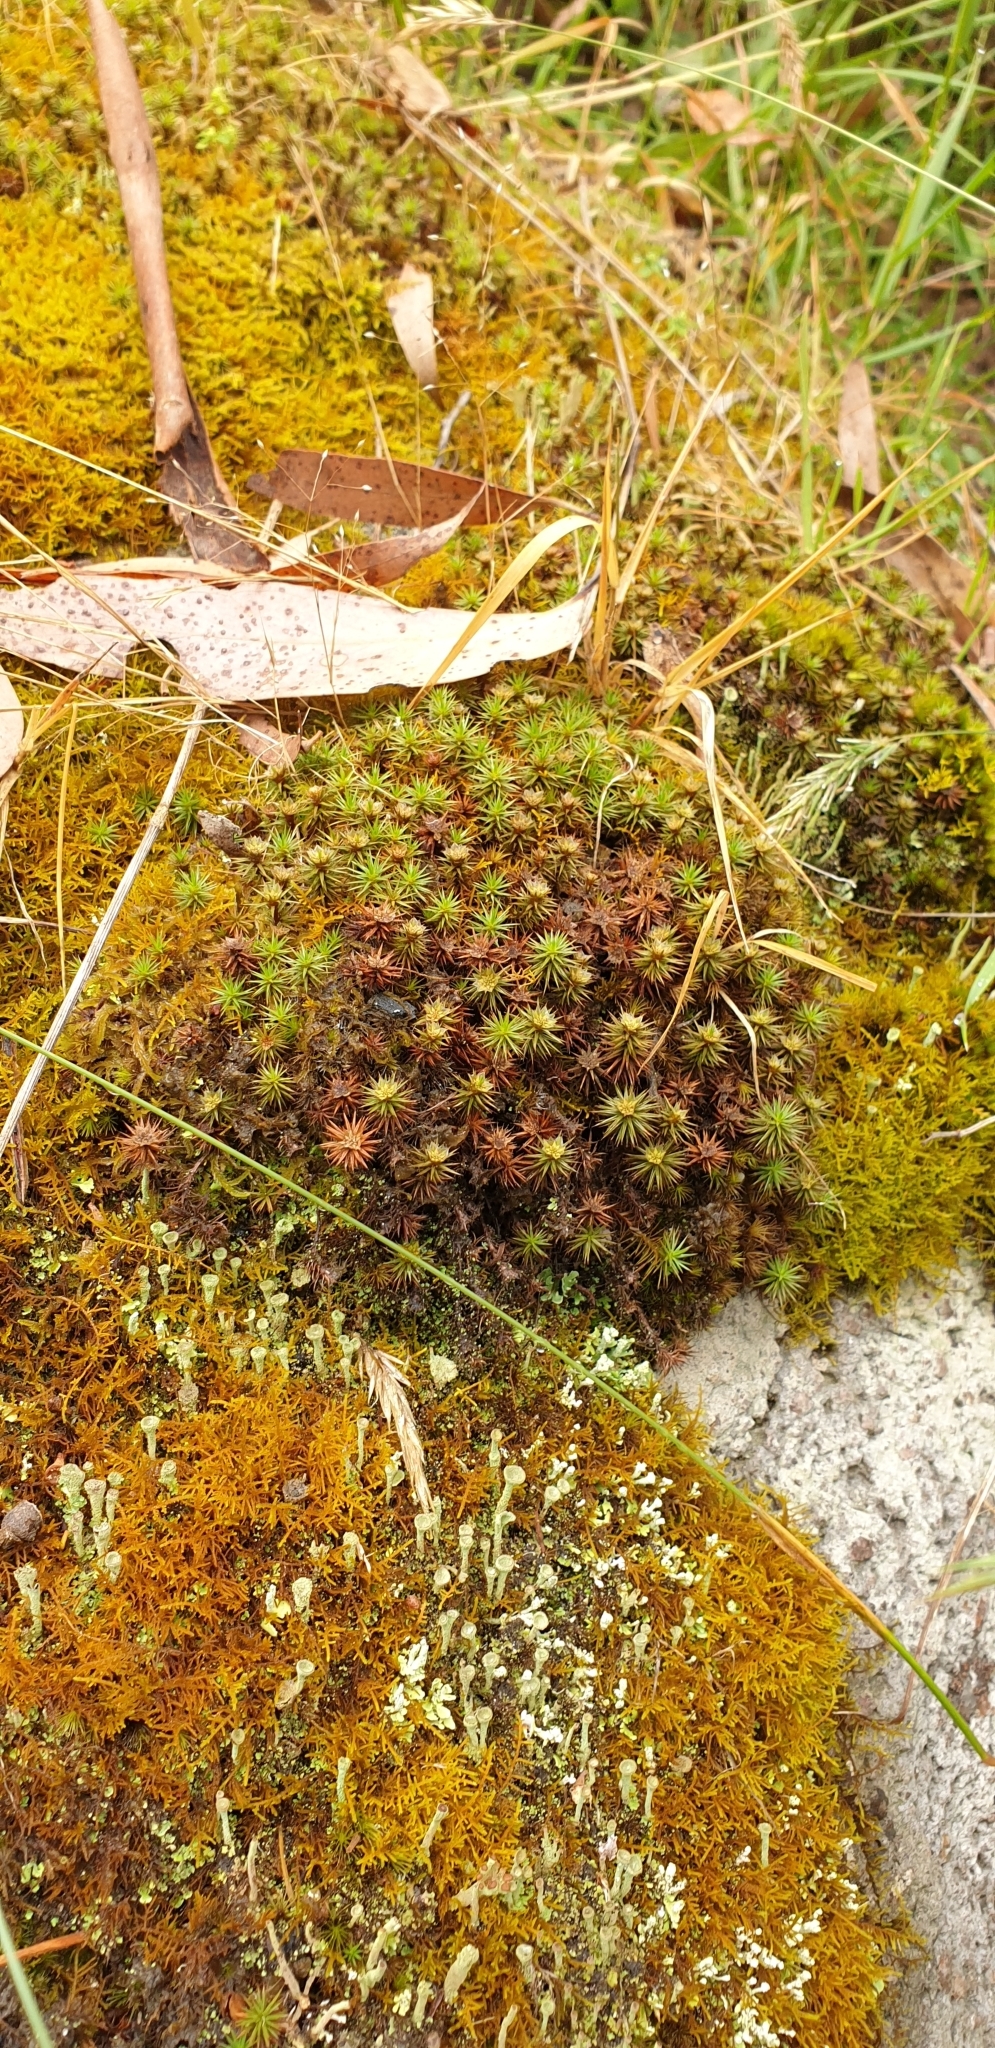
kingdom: Plantae
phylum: Bryophyta
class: Polytrichopsida
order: Polytrichales
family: Polytrichaceae
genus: Polytrichum
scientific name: Polytrichum juniperinum
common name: Juniper haircap moss
